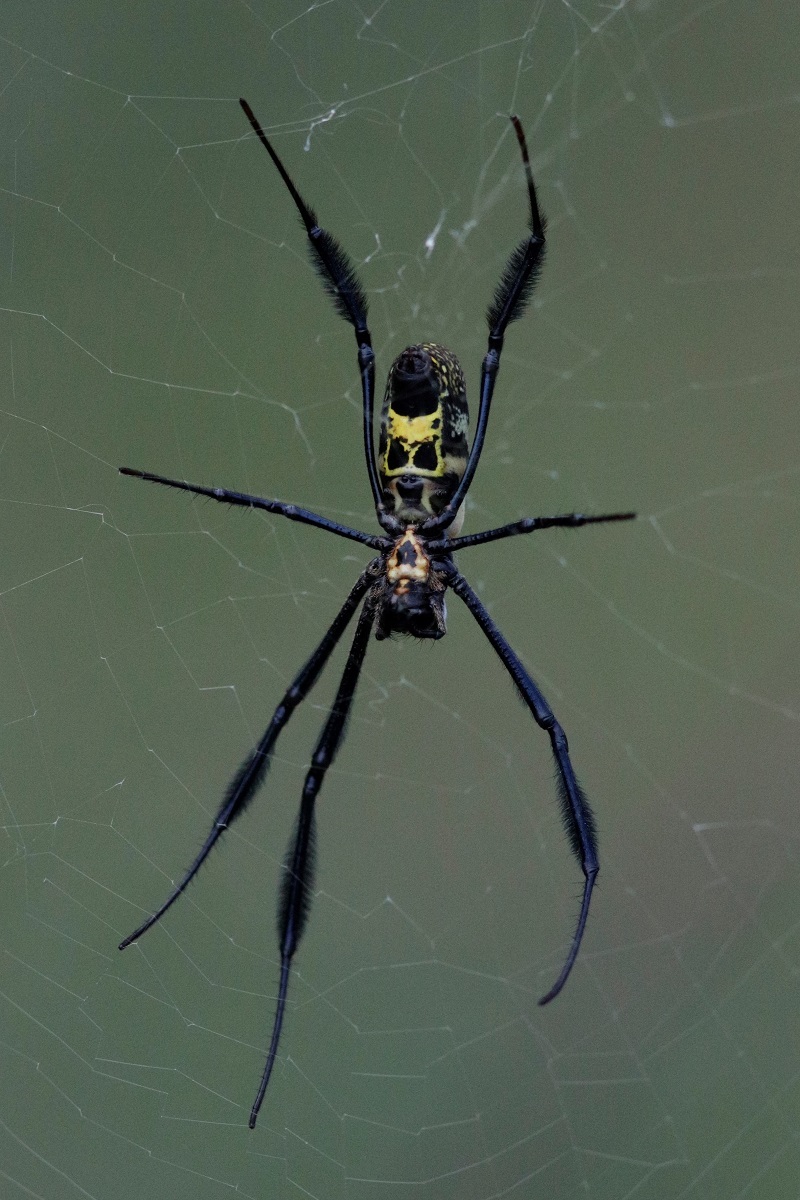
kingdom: Animalia
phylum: Arthropoda
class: Arachnida
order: Araneae
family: Araneidae
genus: Trichonephila
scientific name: Trichonephila fenestrata
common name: Hairy golden orb weaver
